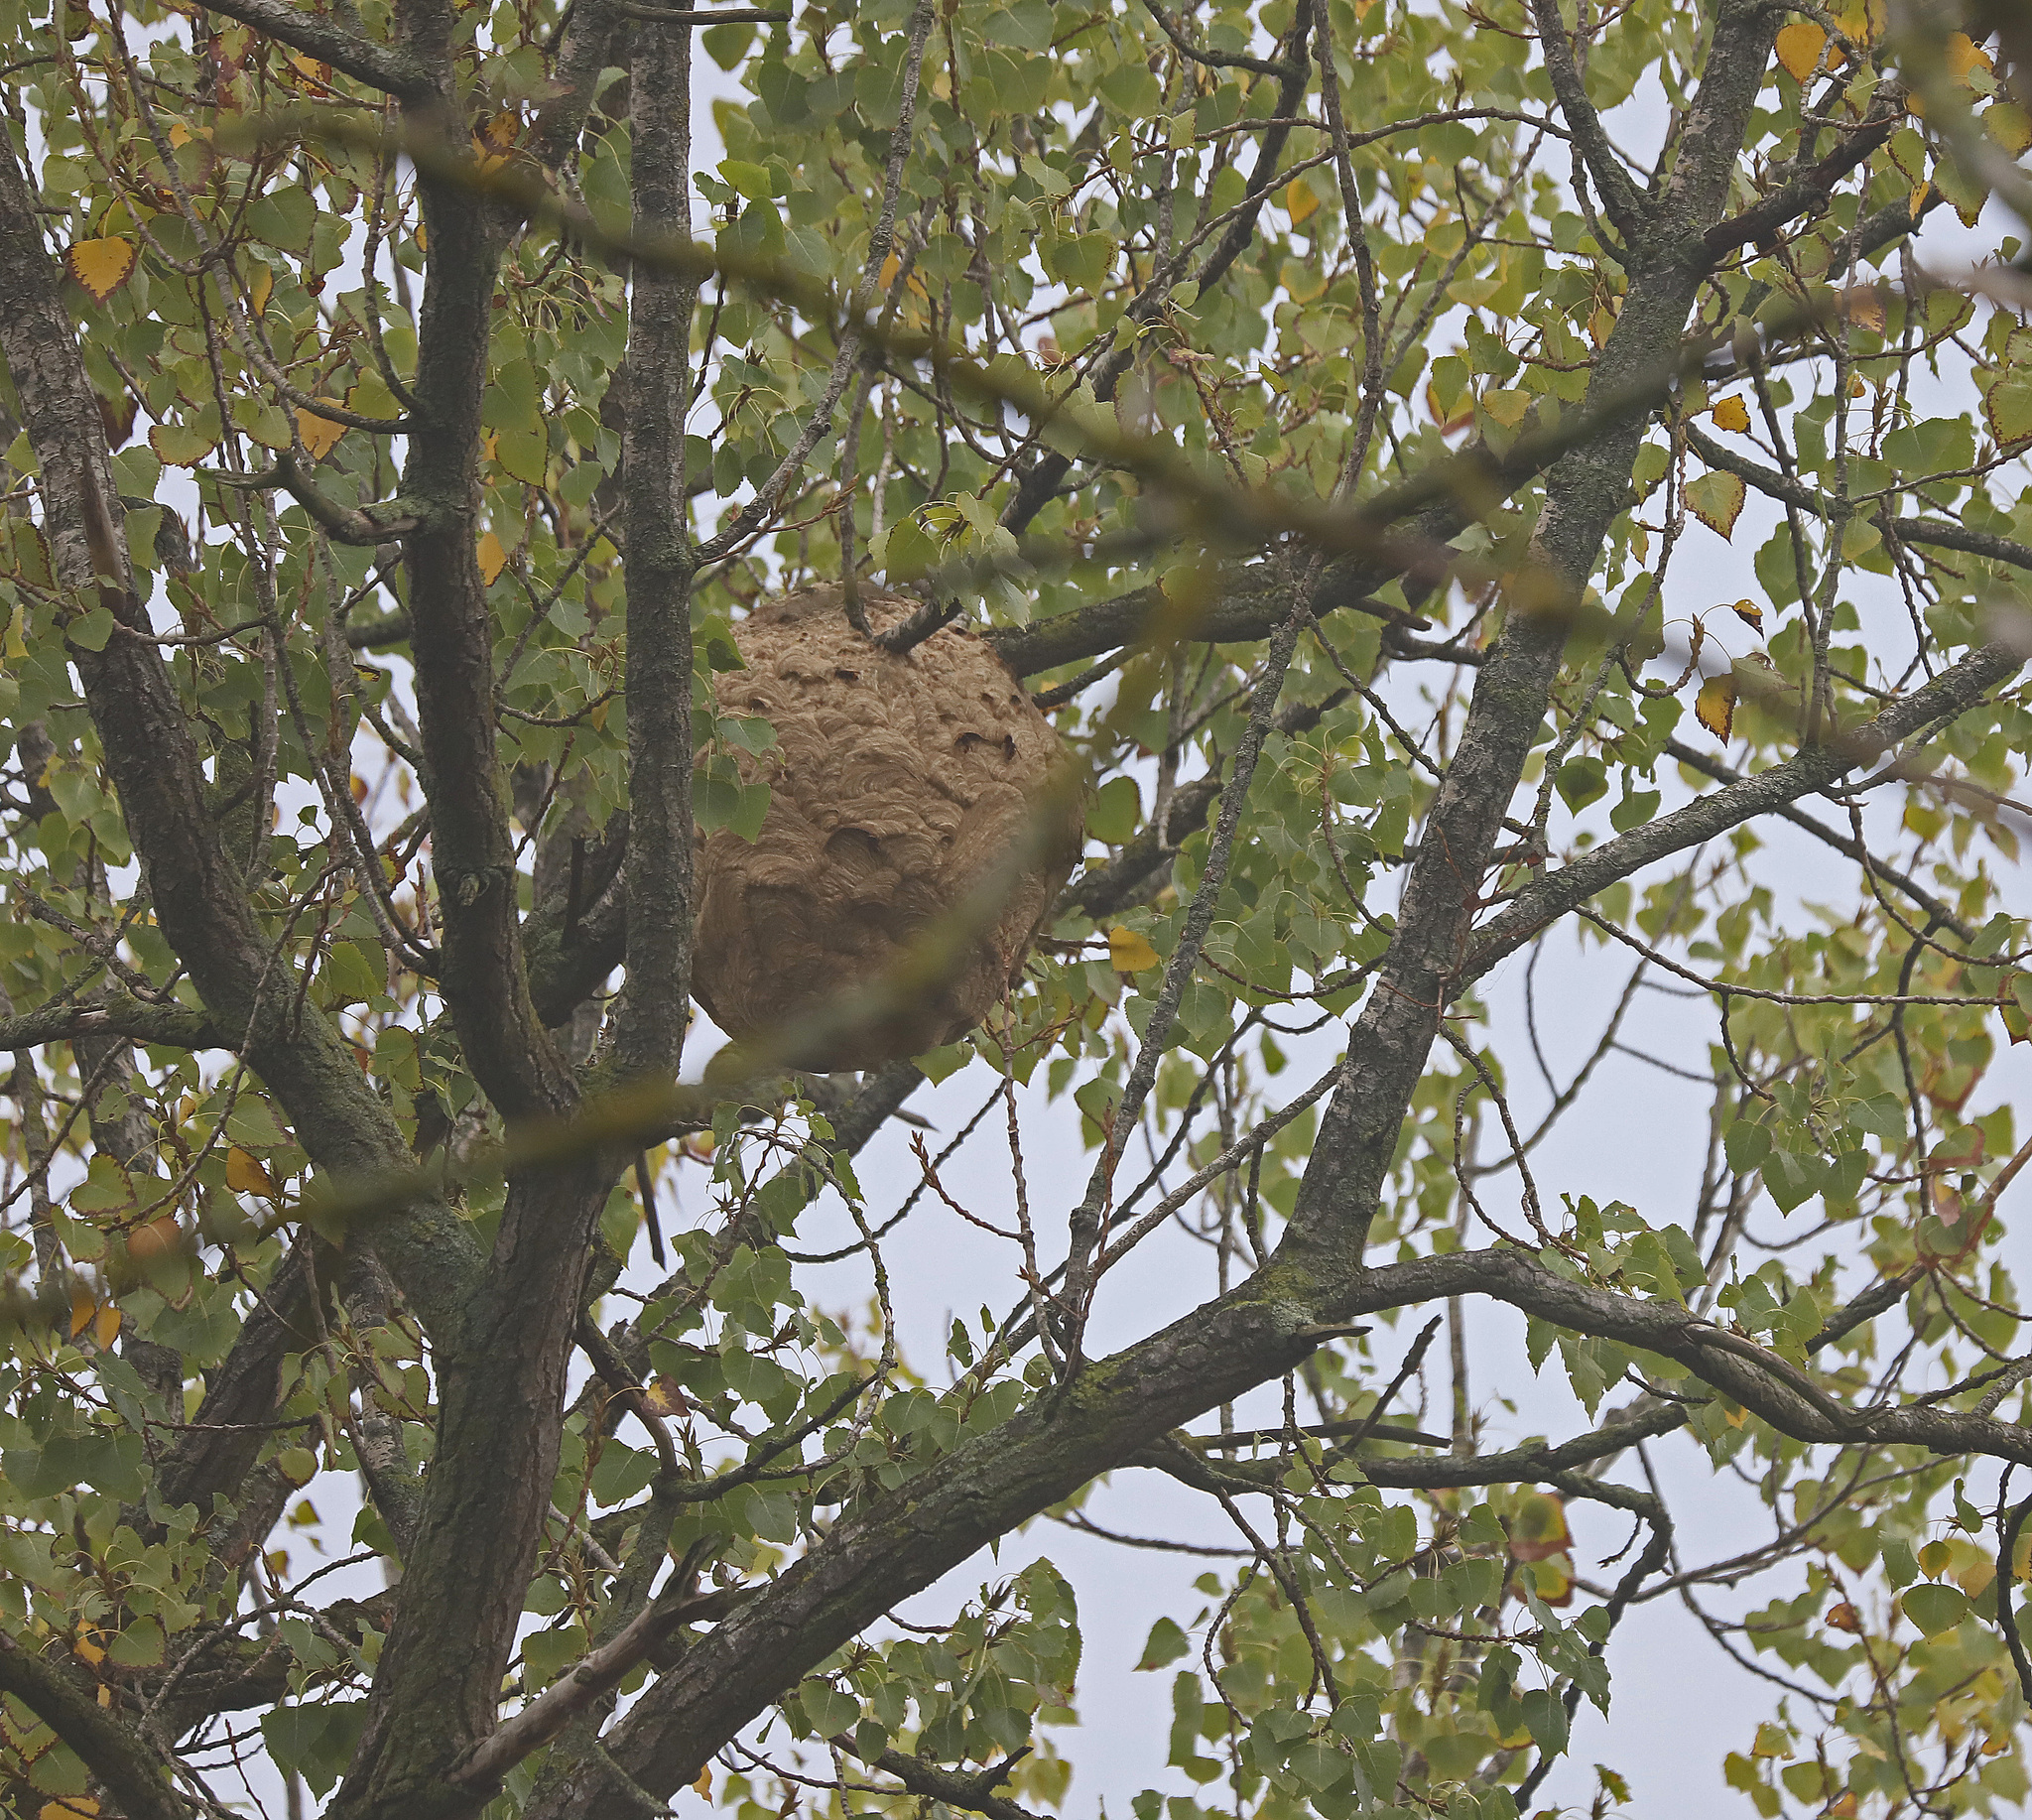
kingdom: Animalia
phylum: Arthropoda
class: Insecta
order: Hymenoptera
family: Vespidae
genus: Vespa
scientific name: Vespa velutina
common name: Asian hornet
